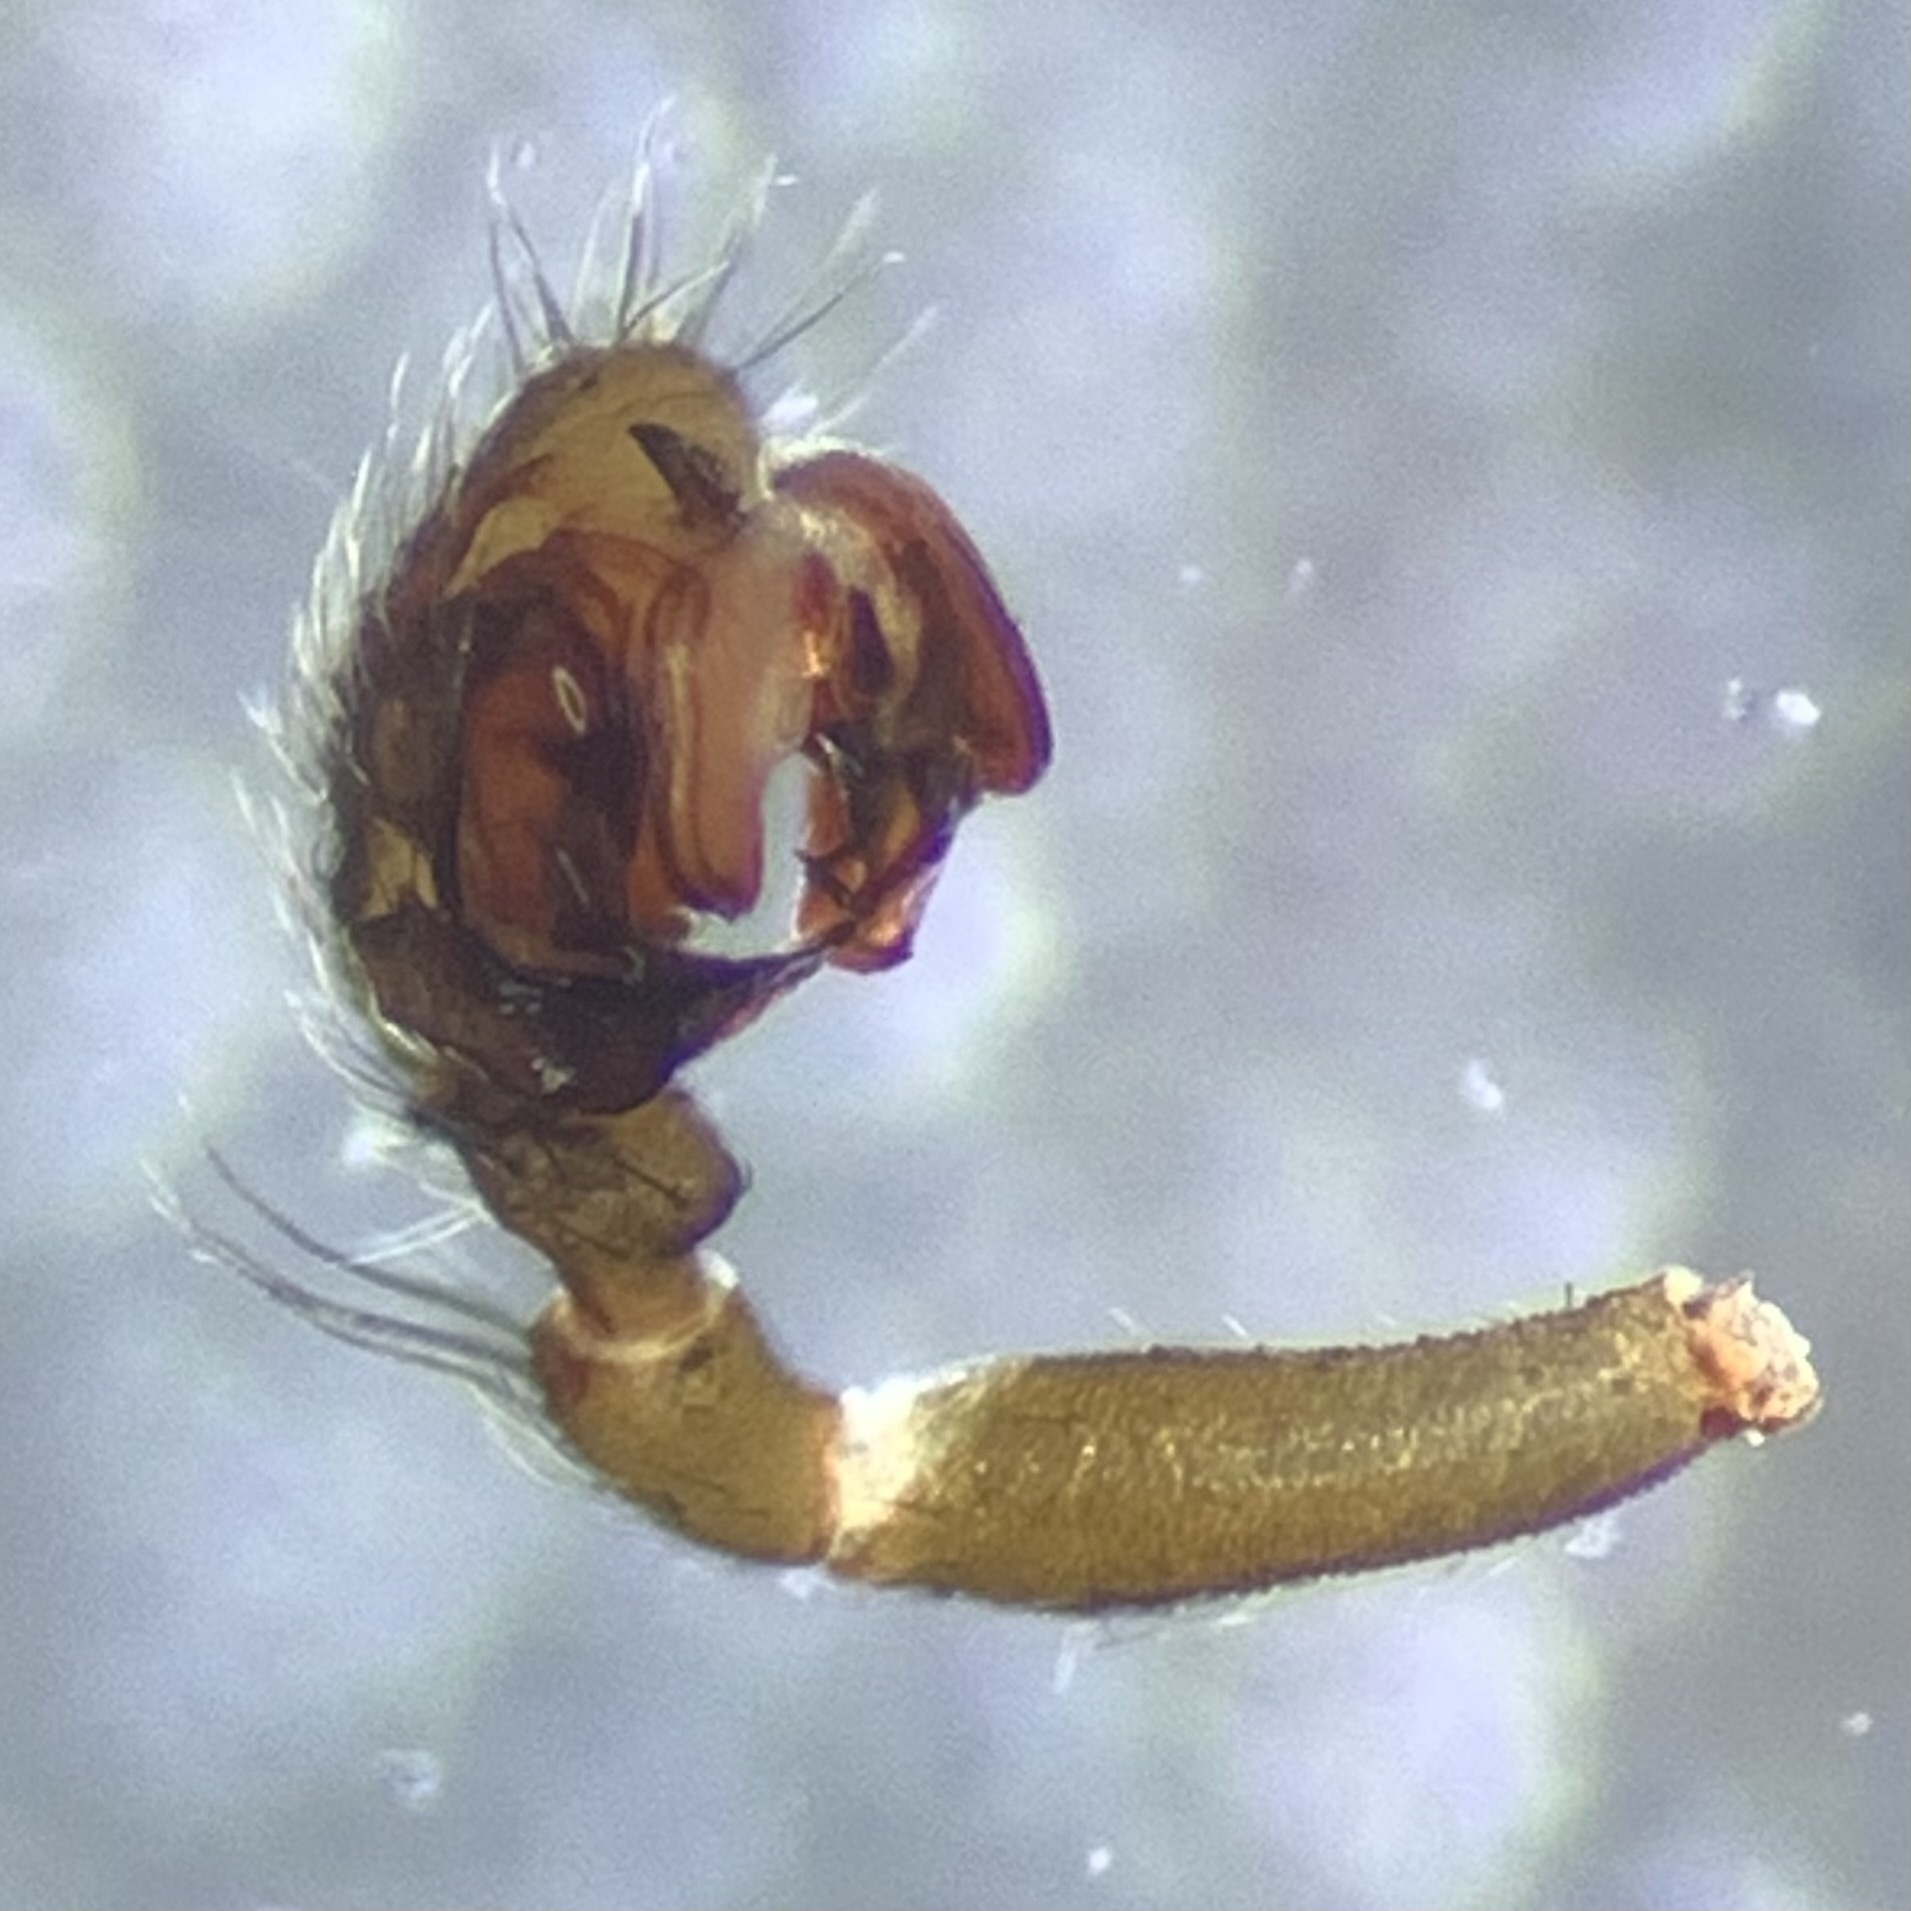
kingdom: Animalia
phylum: Arthropoda
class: Arachnida
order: Araneae
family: Linyphiidae
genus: Microneta
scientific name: Microneta viaria
